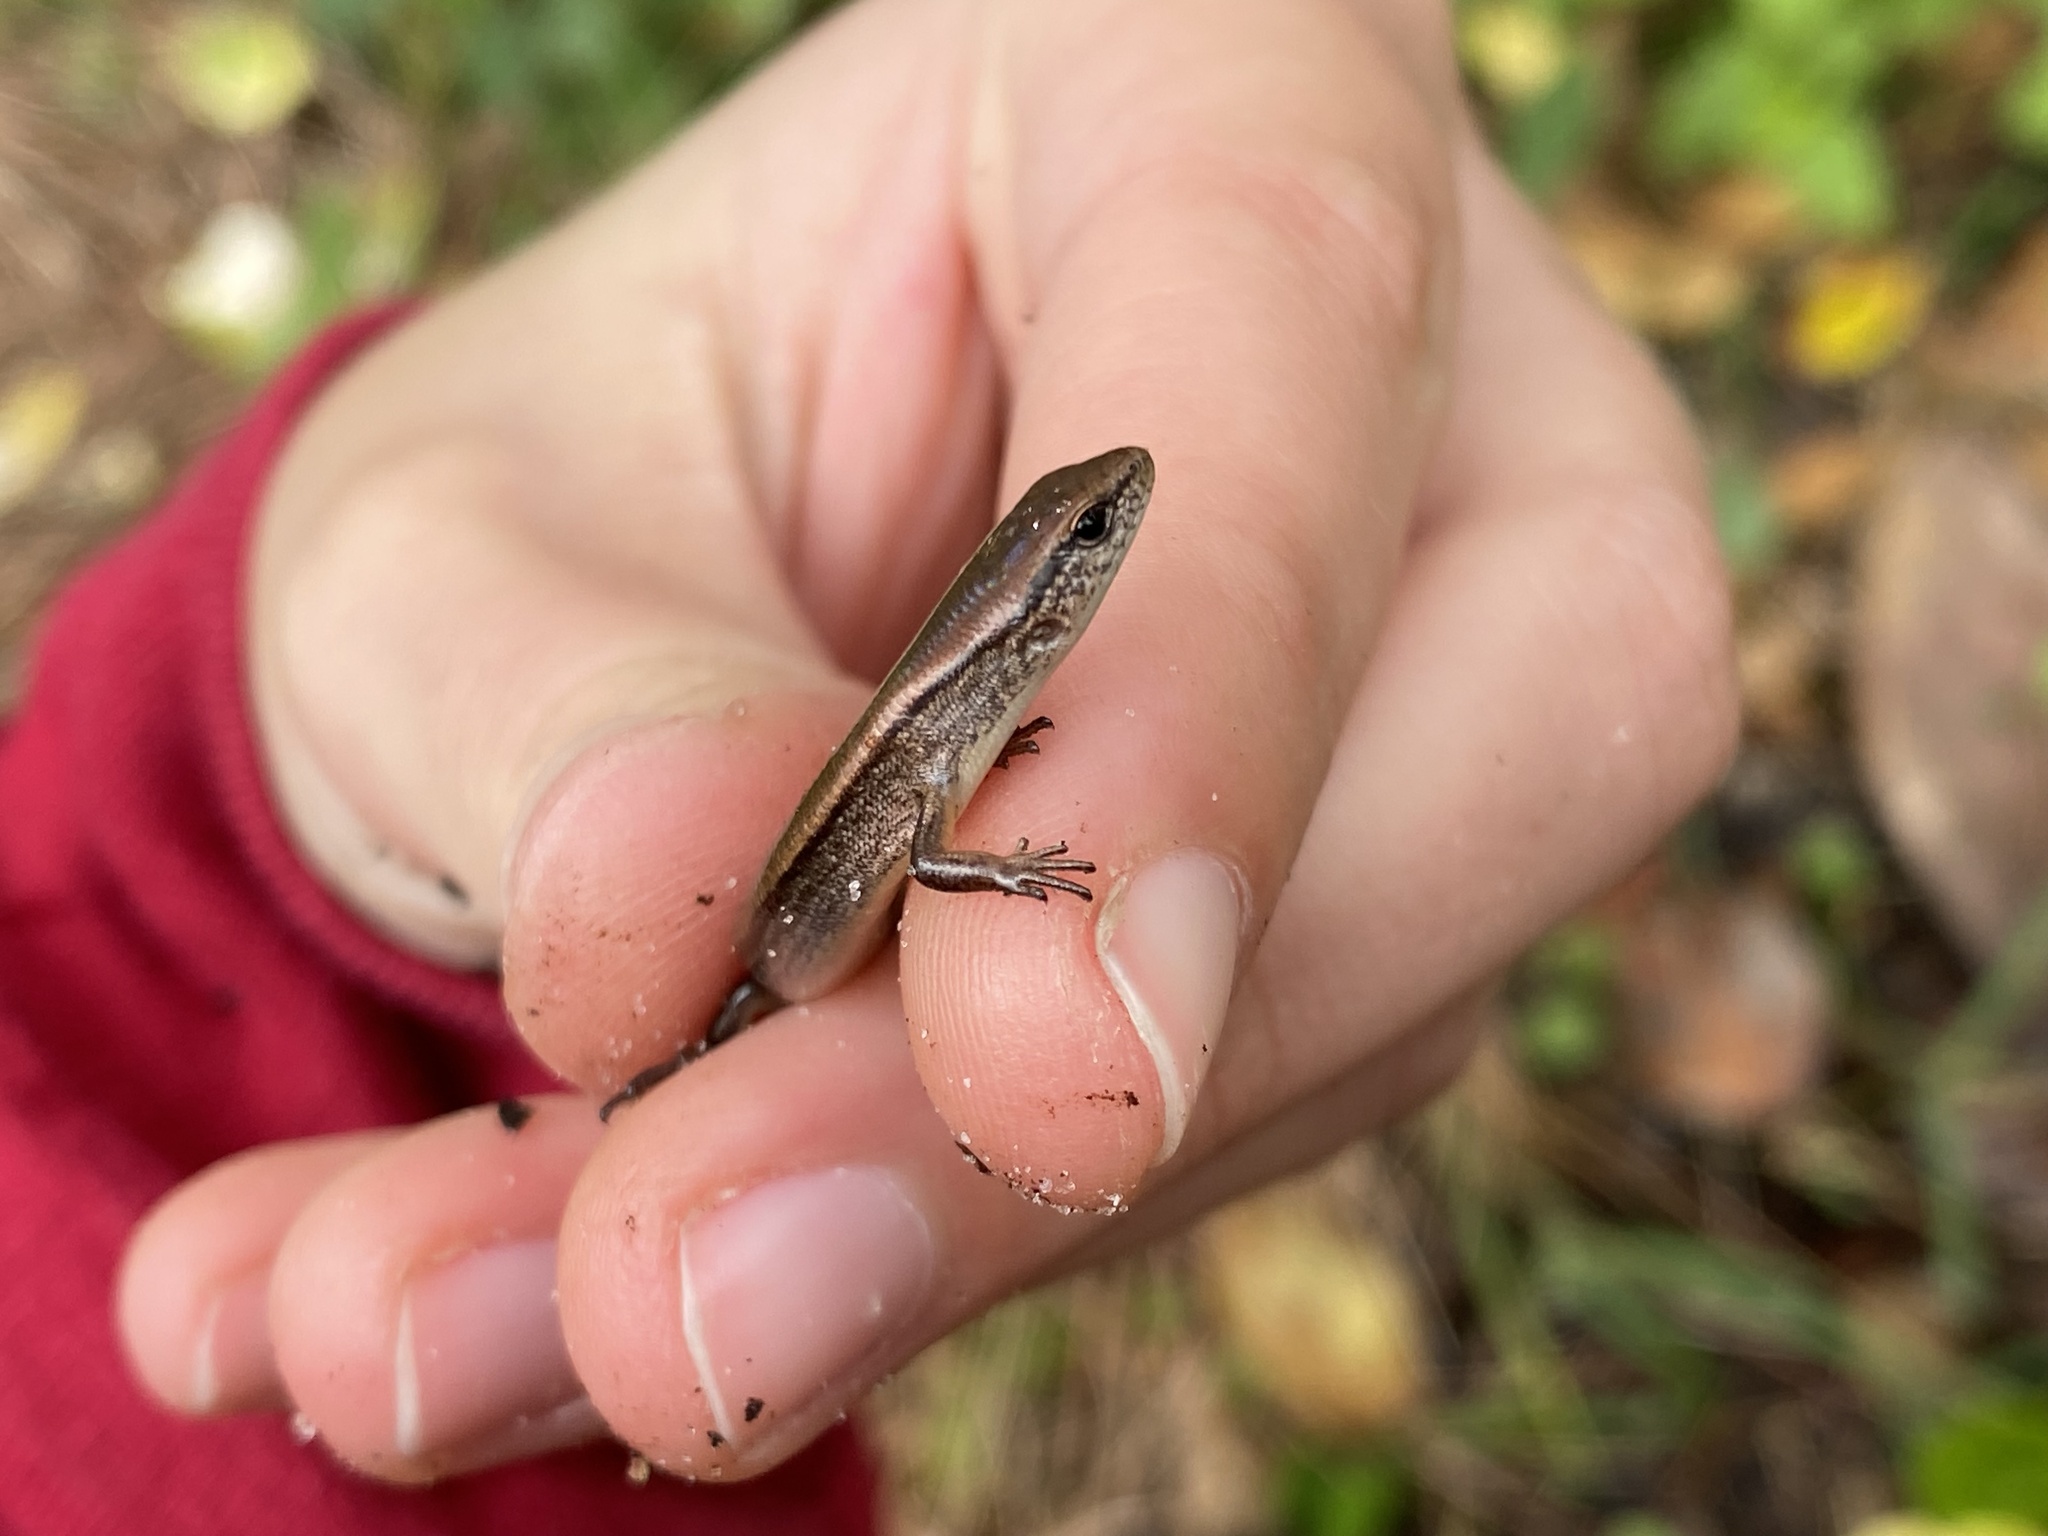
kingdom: Animalia
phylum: Chordata
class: Squamata
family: Scincidae
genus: Scincella
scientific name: Scincella lateralis
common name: Ground skink
